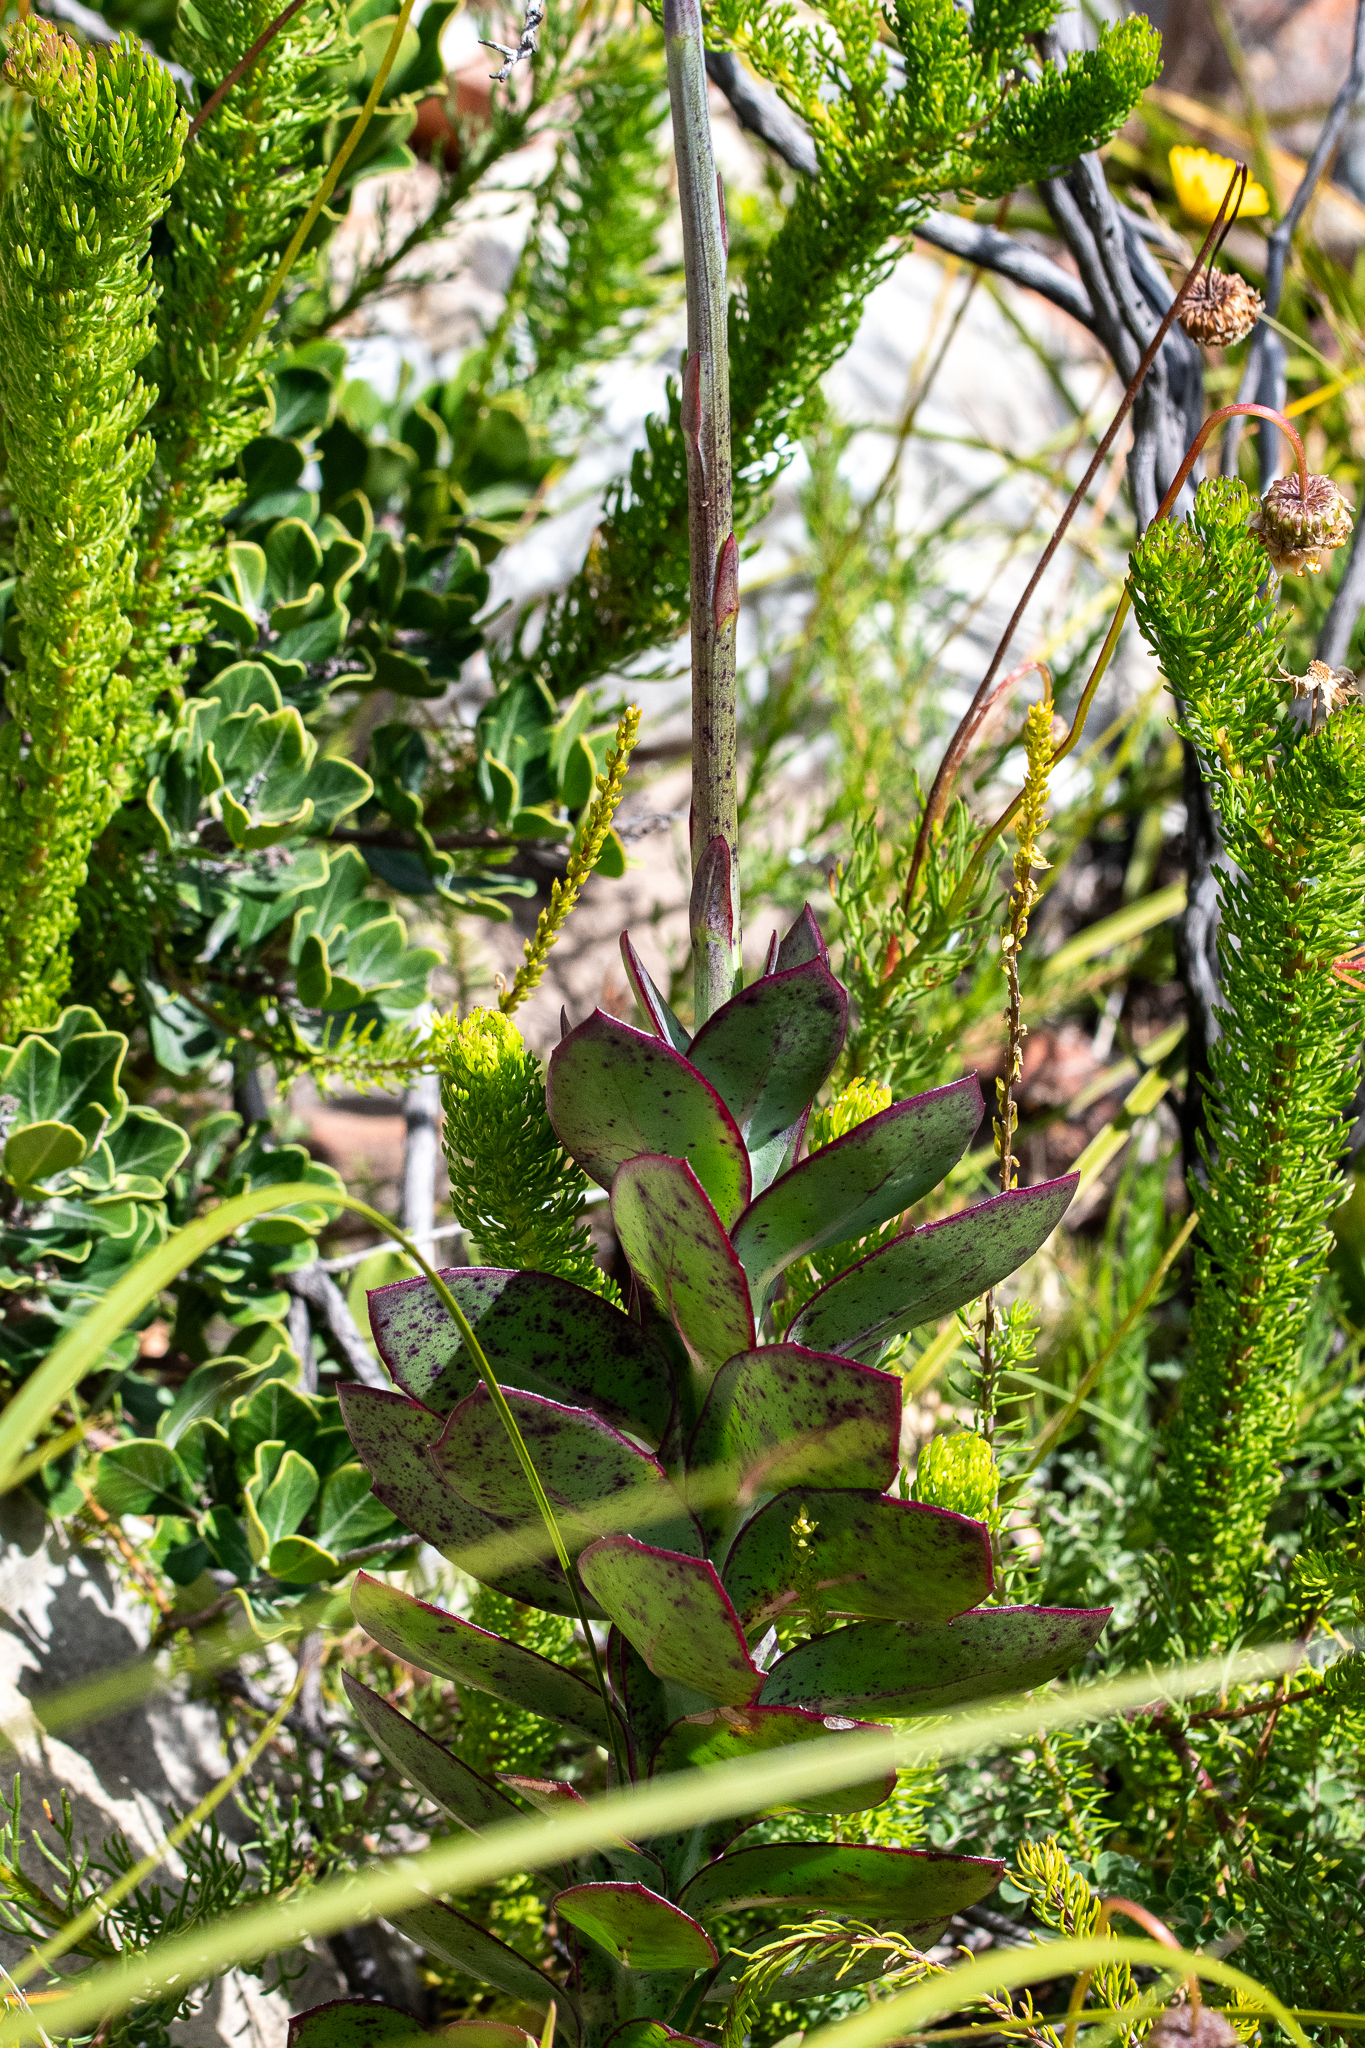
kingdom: Plantae
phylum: Tracheophyta
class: Magnoliopsida
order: Asterales
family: Asteraceae
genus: Othonna
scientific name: Othonna quinquedentata
